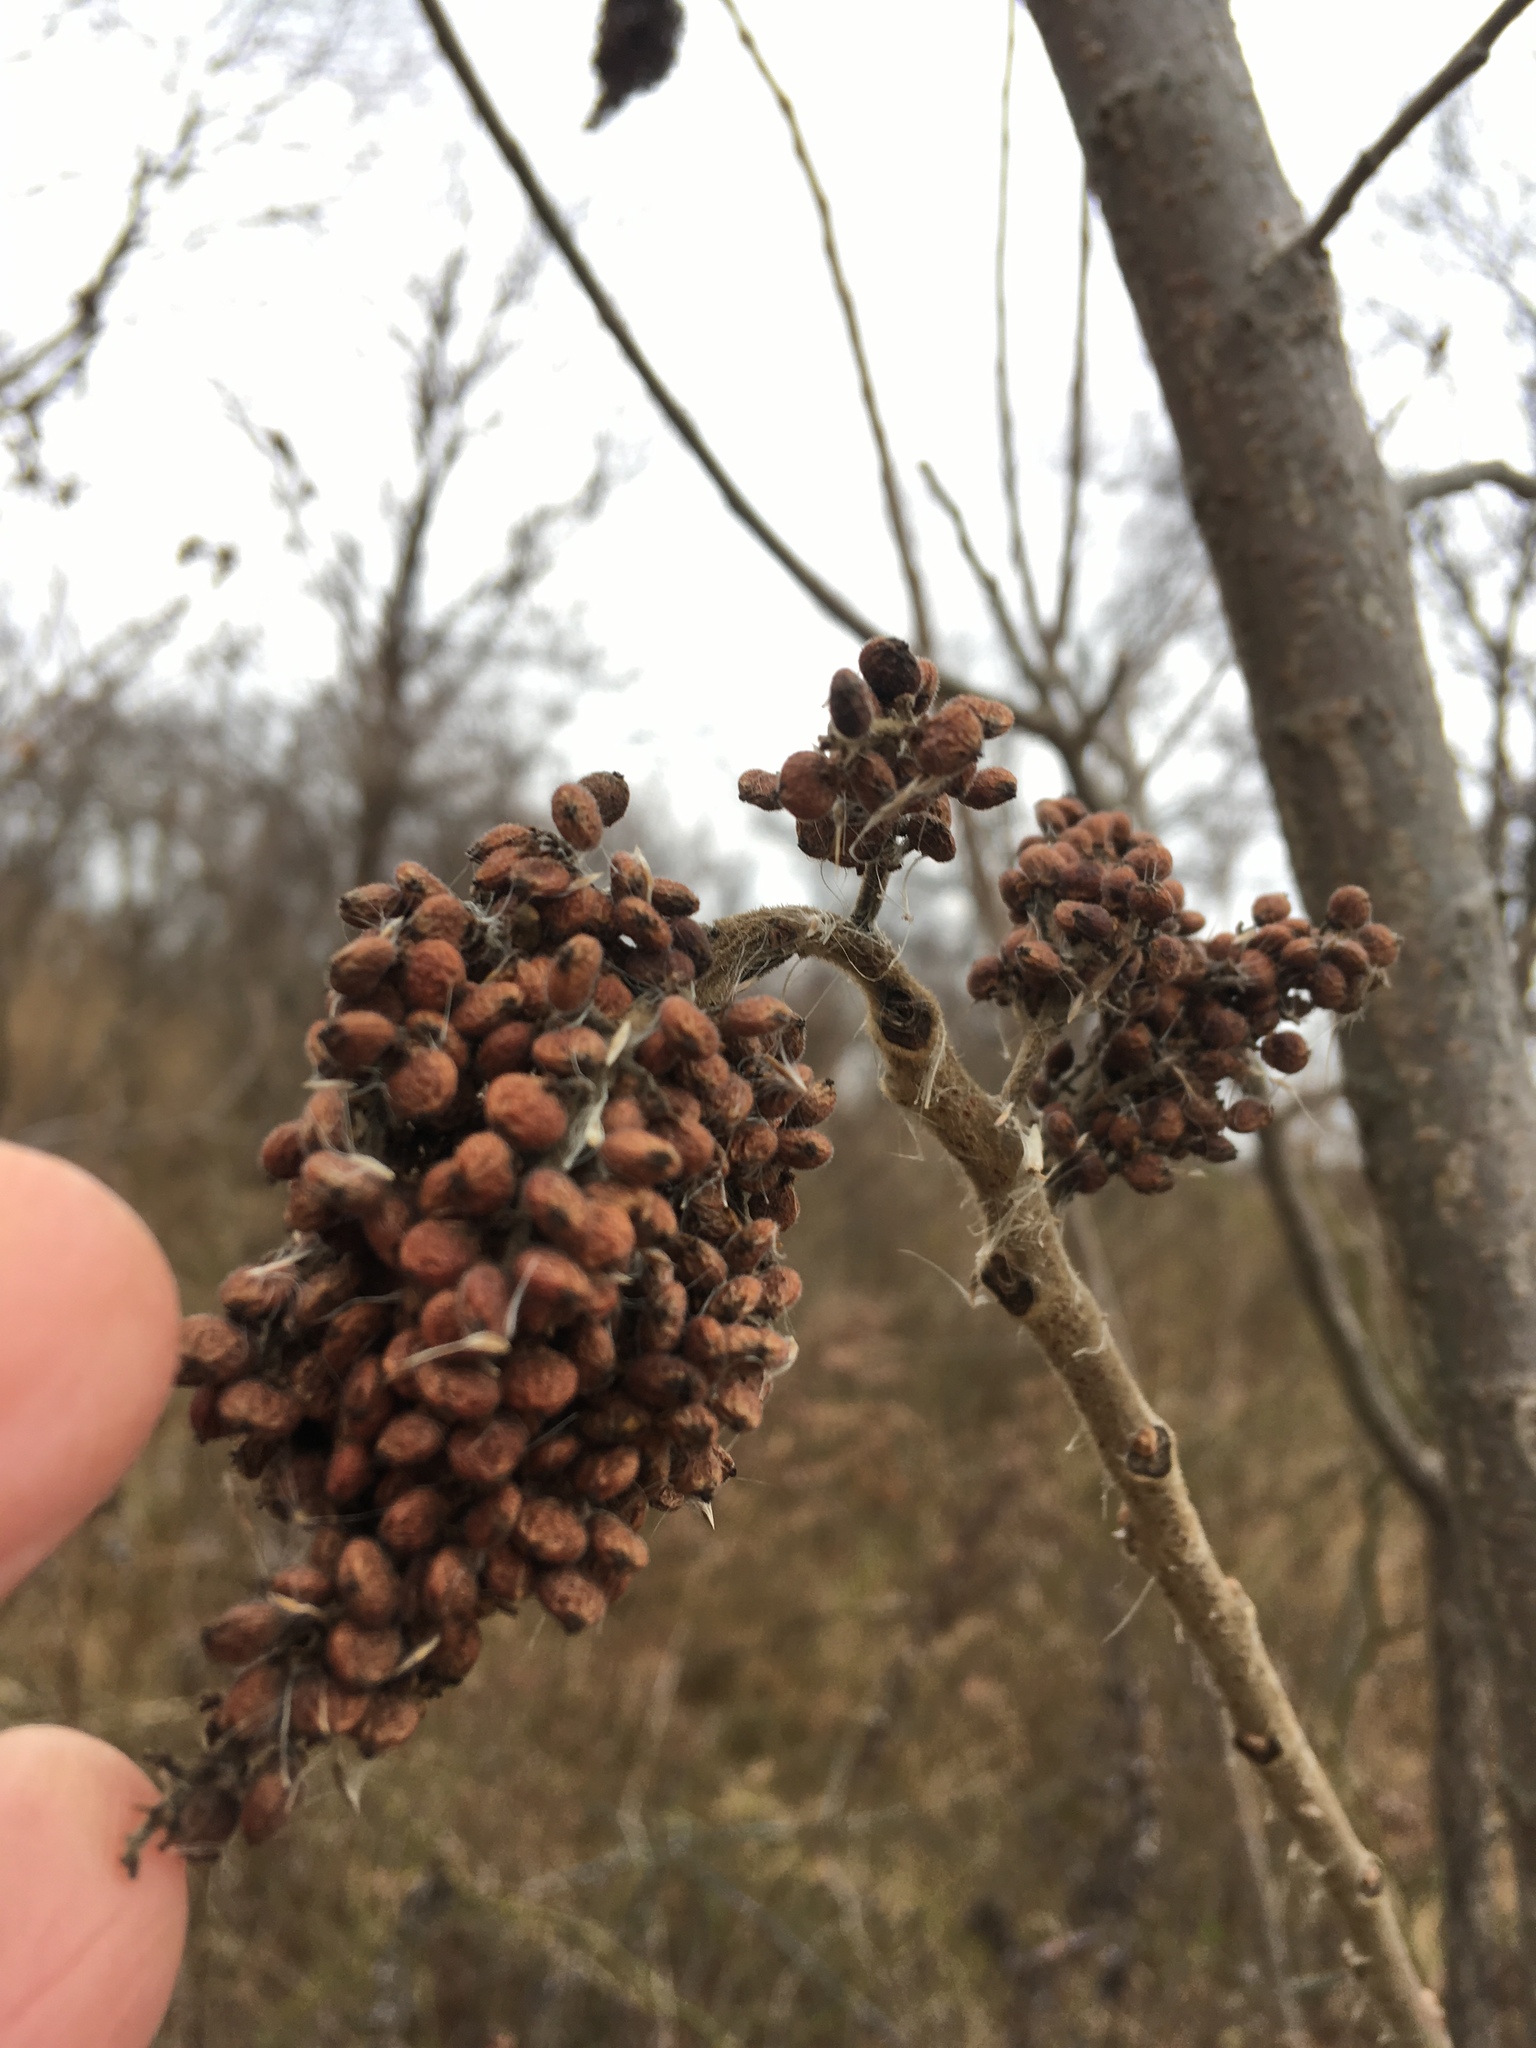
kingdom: Plantae
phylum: Tracheophyta
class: Magnoliopsida
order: Sapindales
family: Anacardiaceae
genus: Rhus
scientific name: Rhus copallina
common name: Shining sumac
